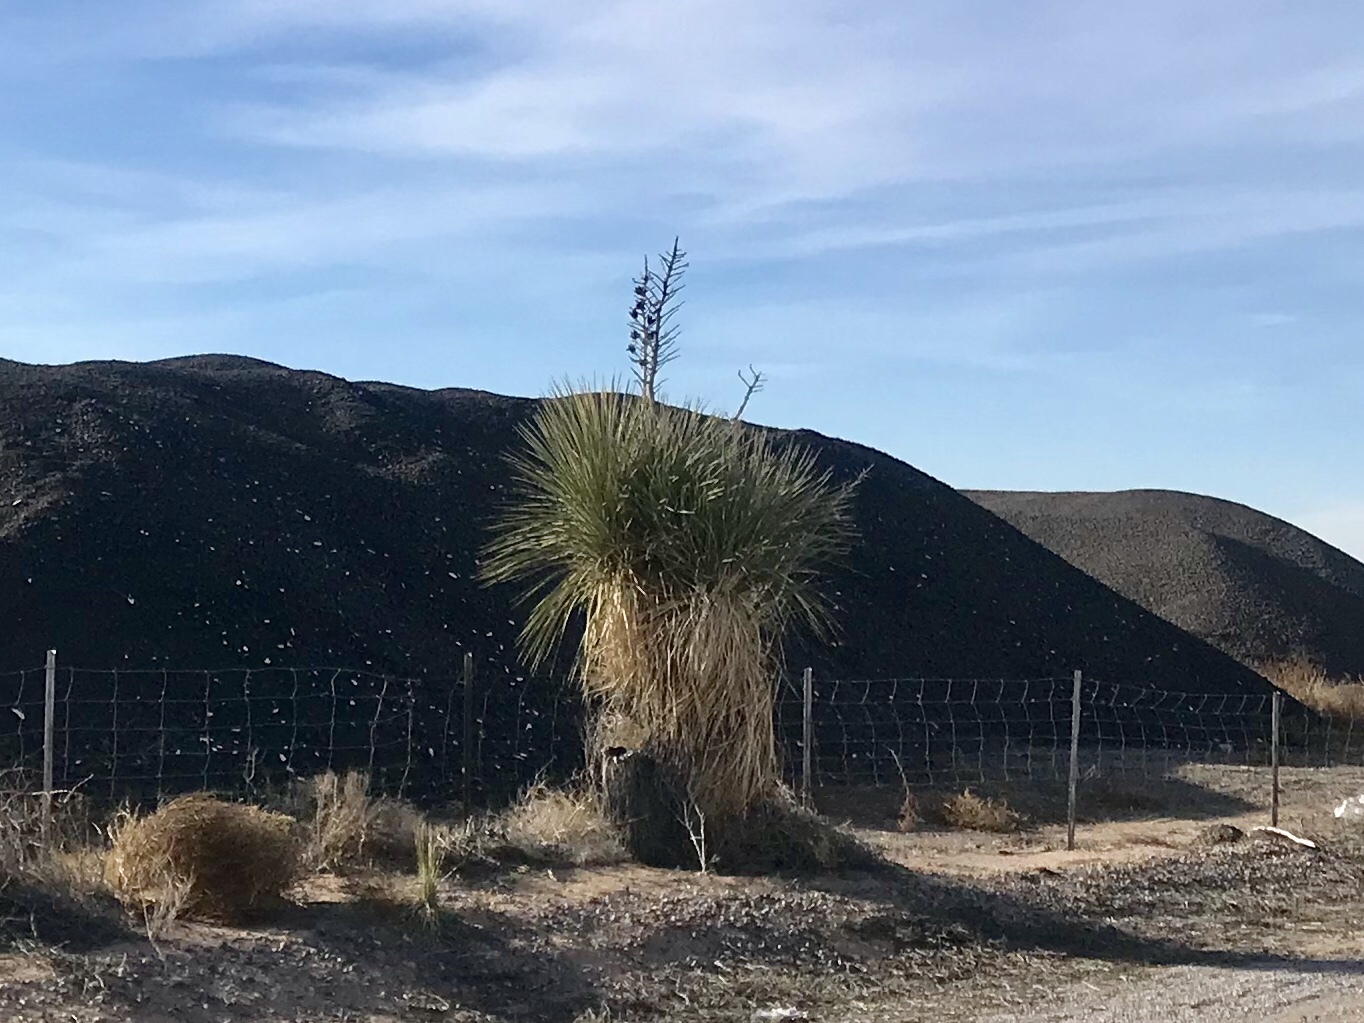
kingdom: Plantae
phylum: Tracheophyta
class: Liliopsida
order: Asparagales
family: Asparagaceae
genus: Yucca
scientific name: Yucca elata
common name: Palmella
